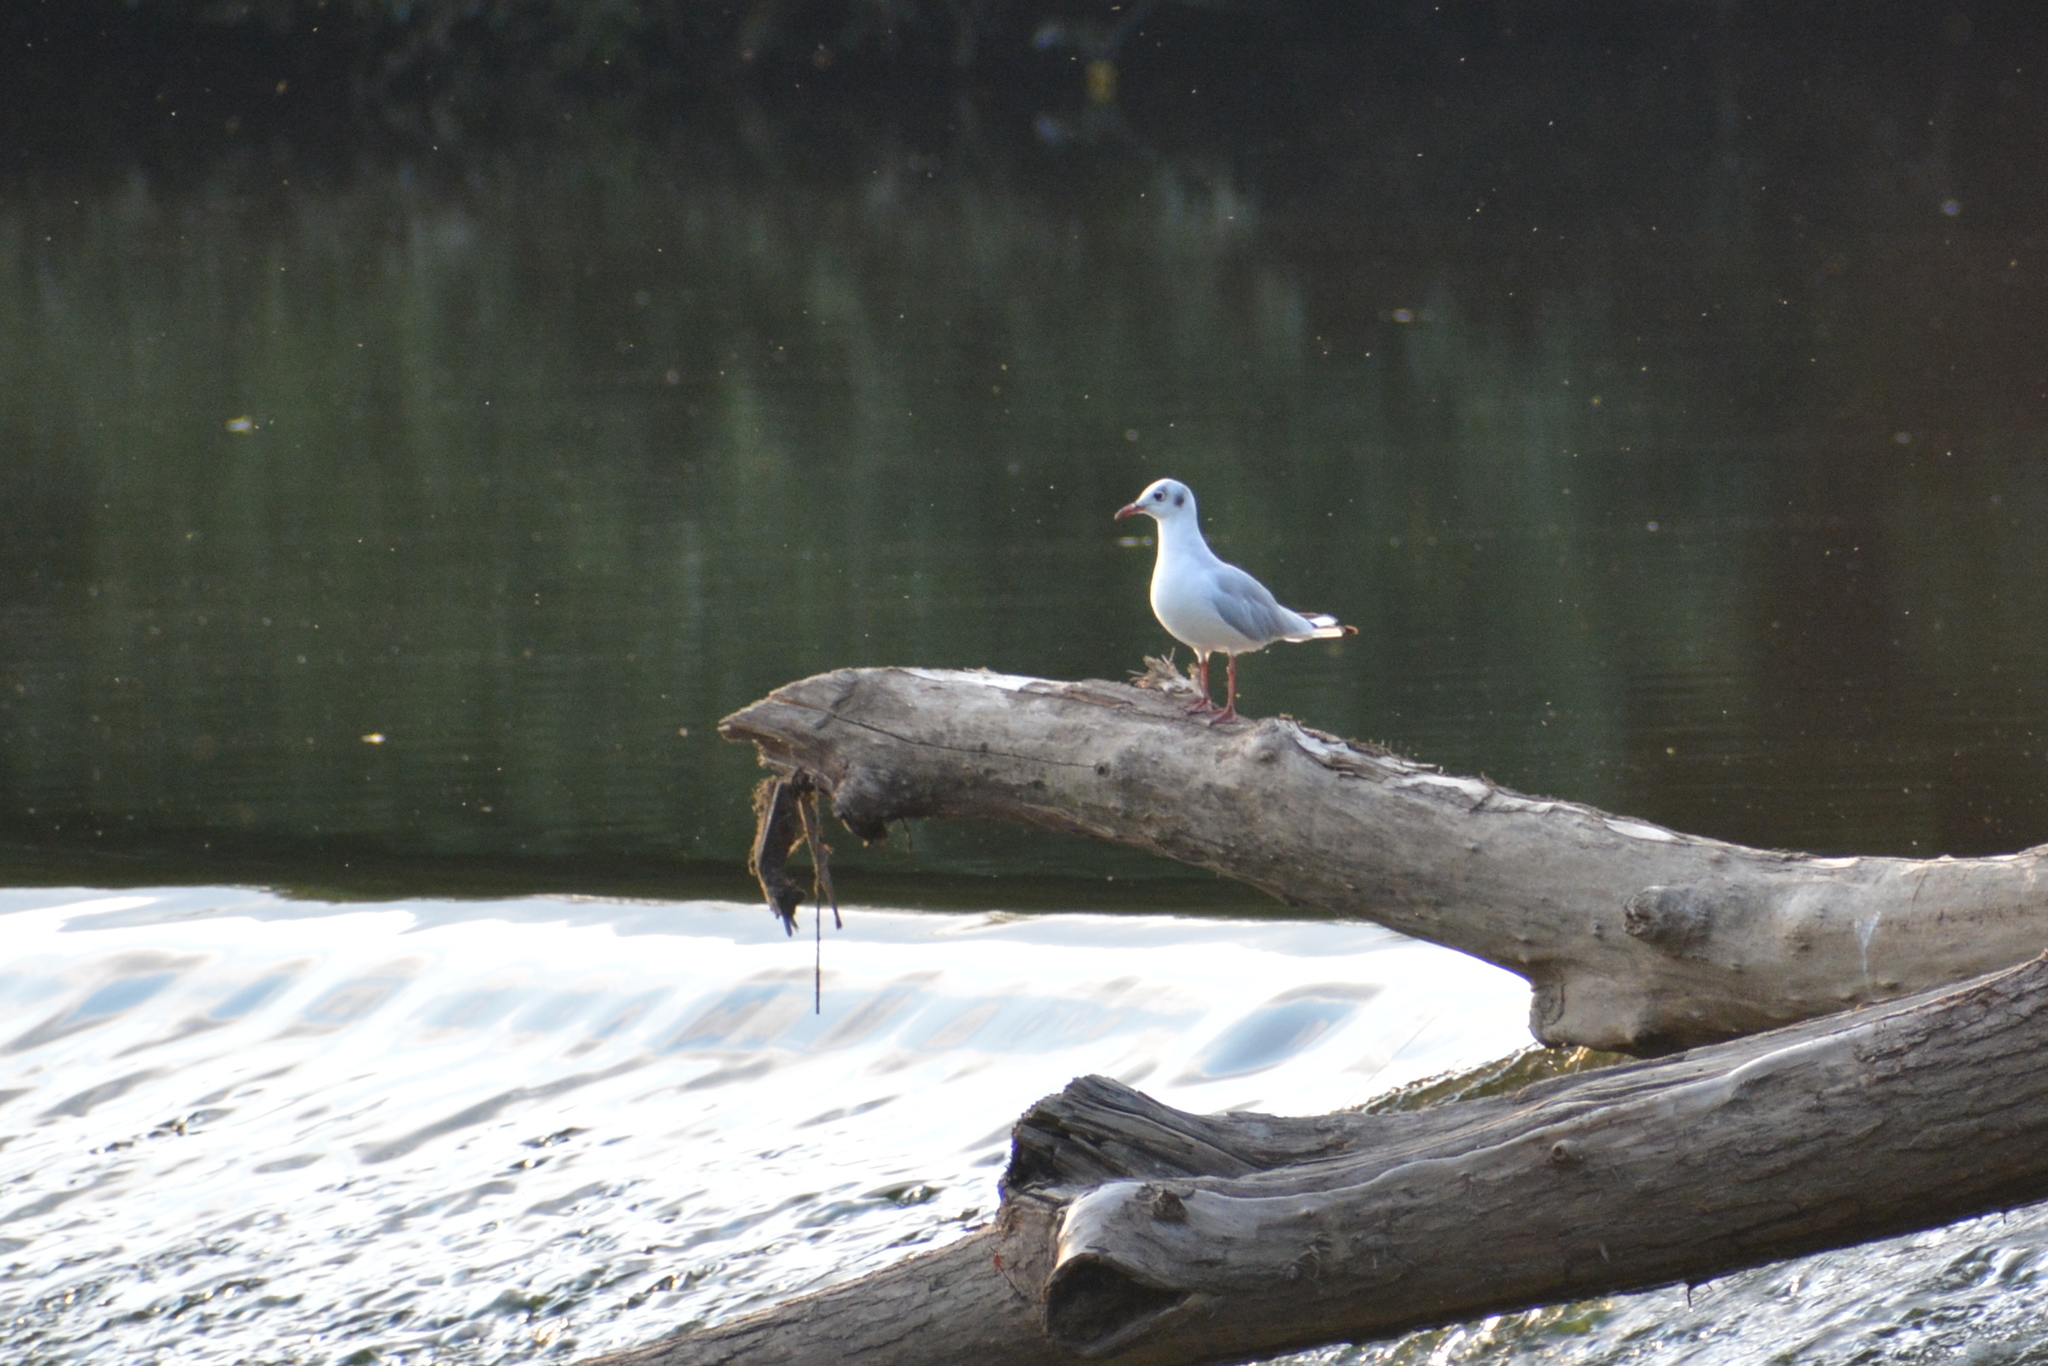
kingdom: Animalia
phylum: Chordata
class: Aves
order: Charadriiformes
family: Laridae
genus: Chroicocephalus
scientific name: Chroicocephalus ridibundus
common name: Black-headed gull
